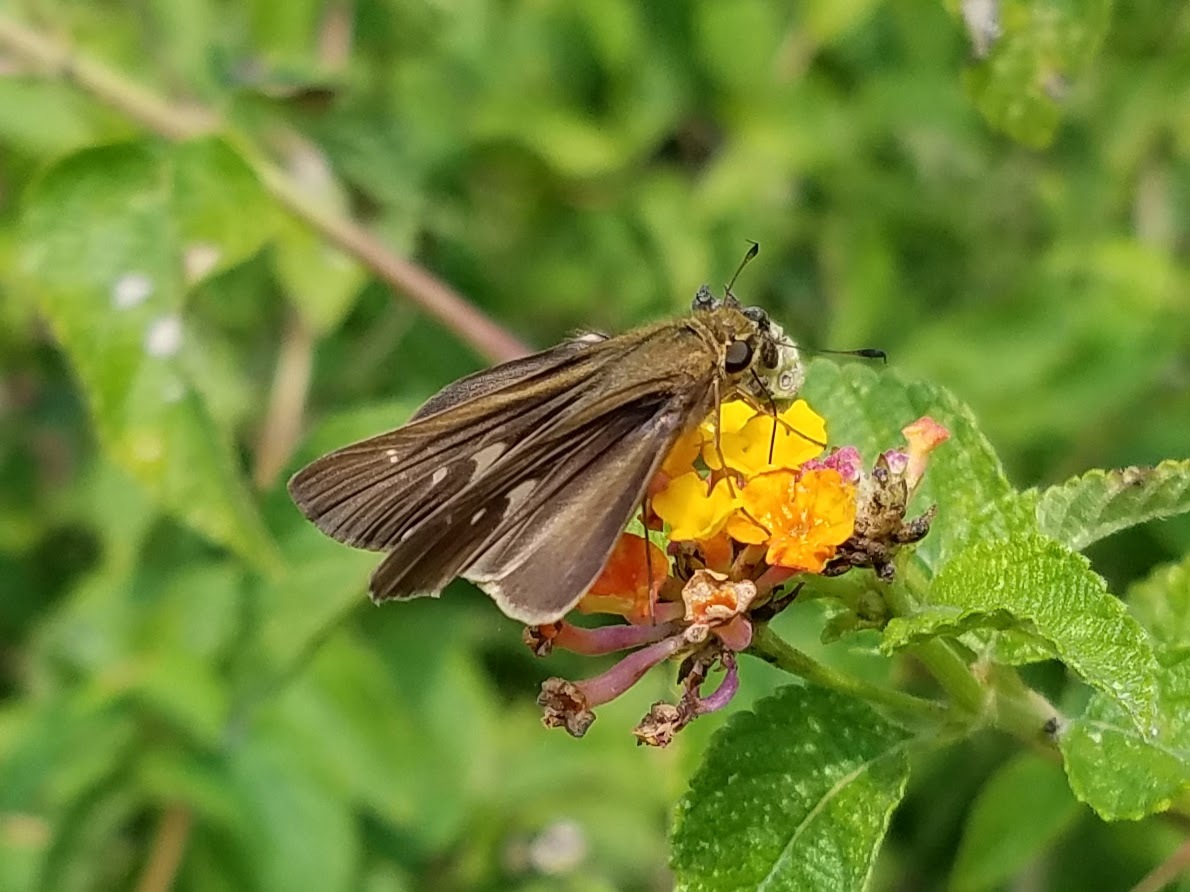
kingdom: Animalia
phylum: Arthropoda
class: Insecta
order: Lepidoptera
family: Hesperiidae
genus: Panoquina
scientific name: Panoquina ocola
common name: Ocola skipper
